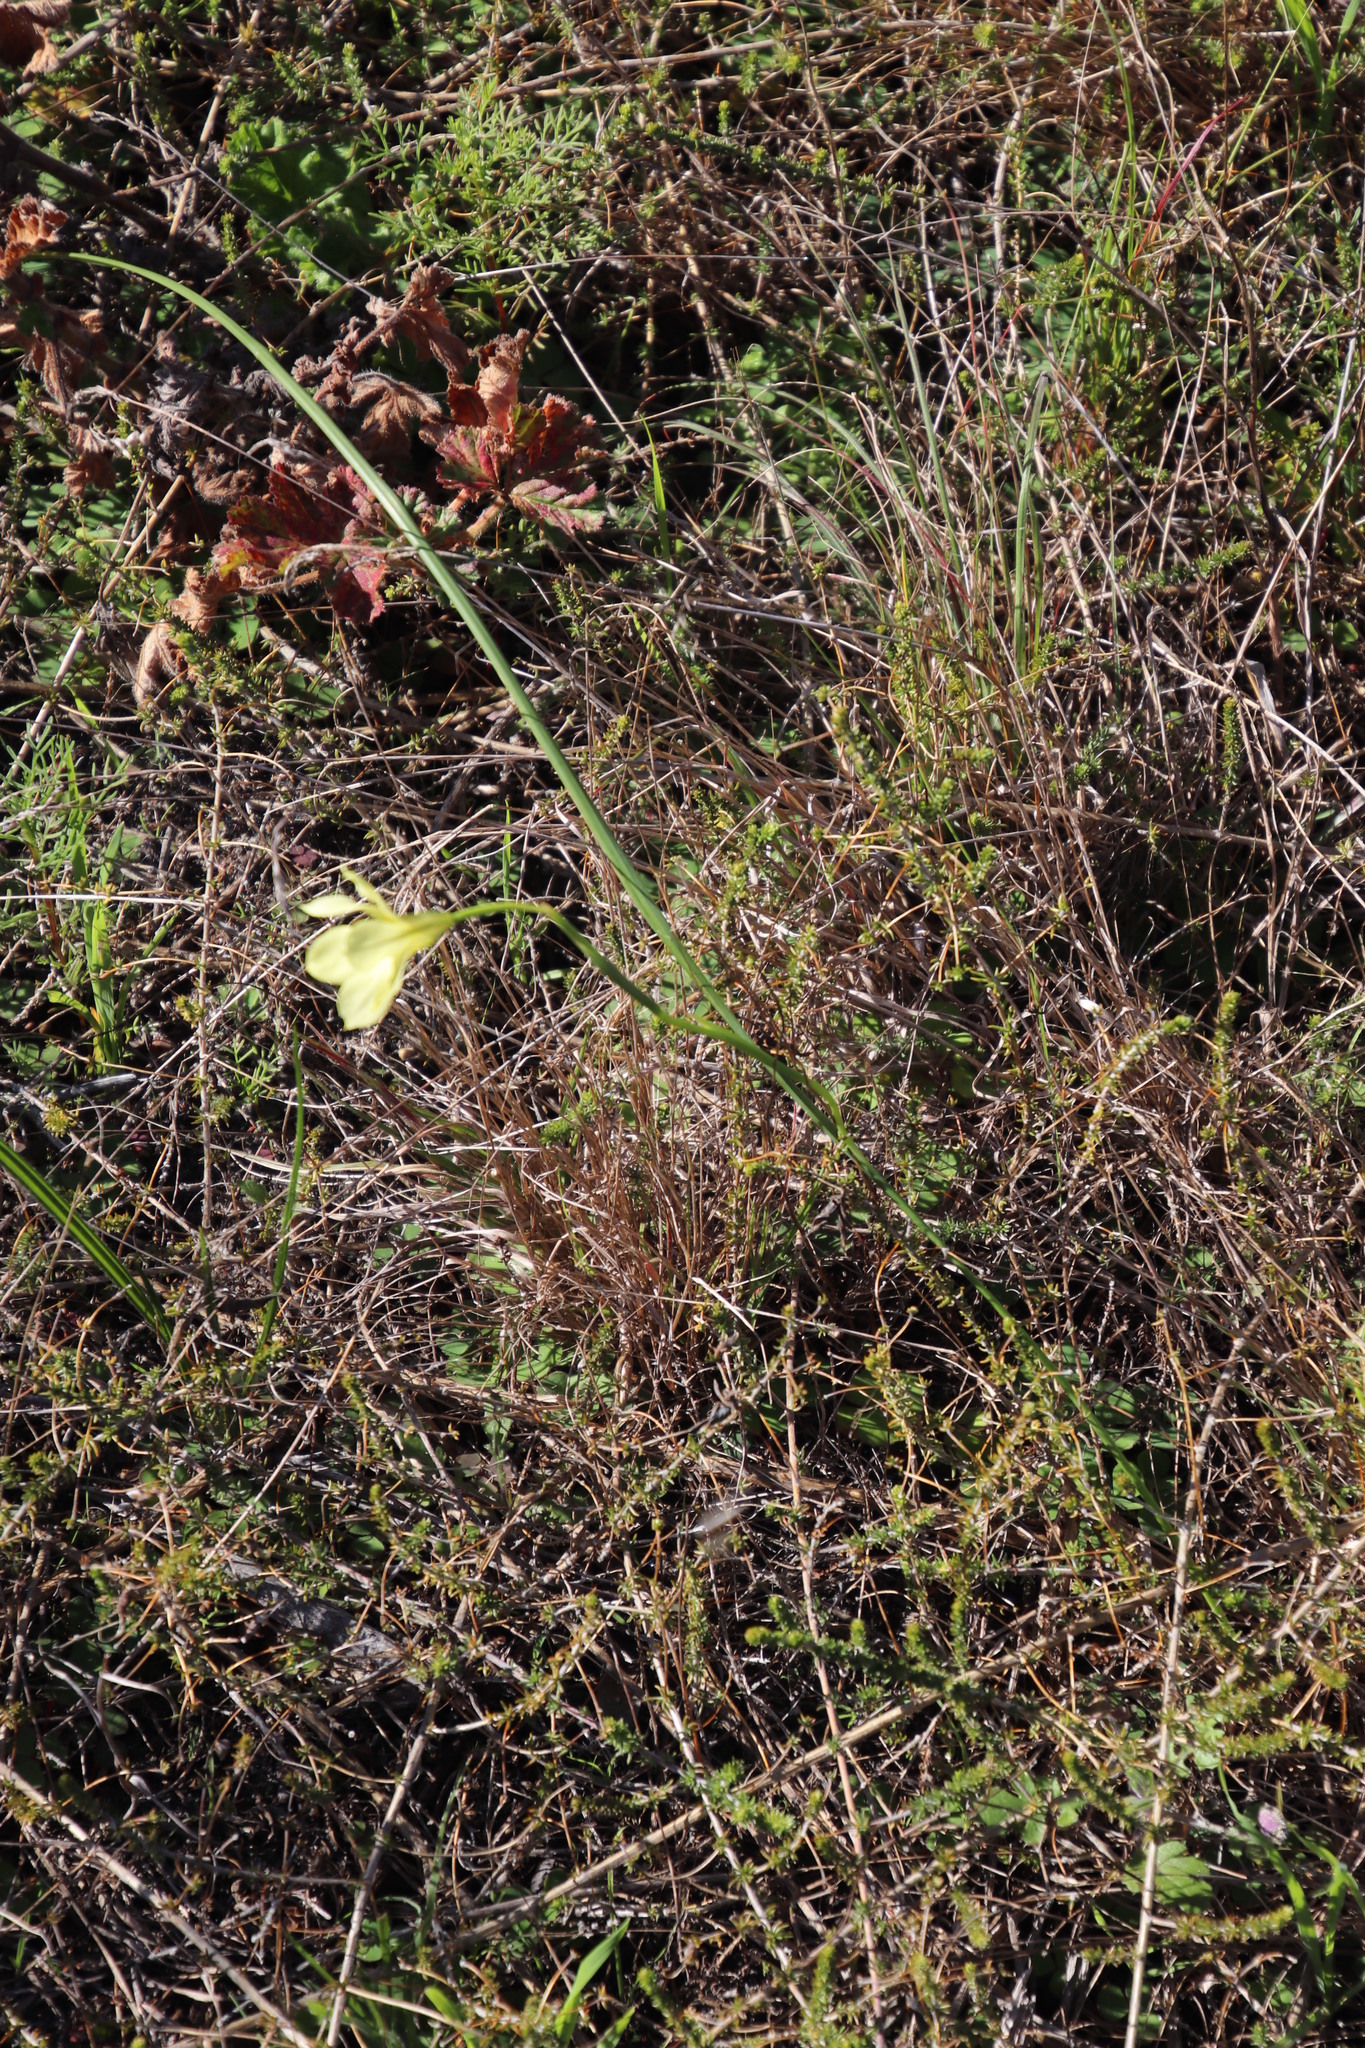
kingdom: Plantae
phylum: Tracheophyta
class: Liliopsida
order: Asparagales
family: Iridaceae
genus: Moraea
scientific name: Moraea collina
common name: Cape-tulip
